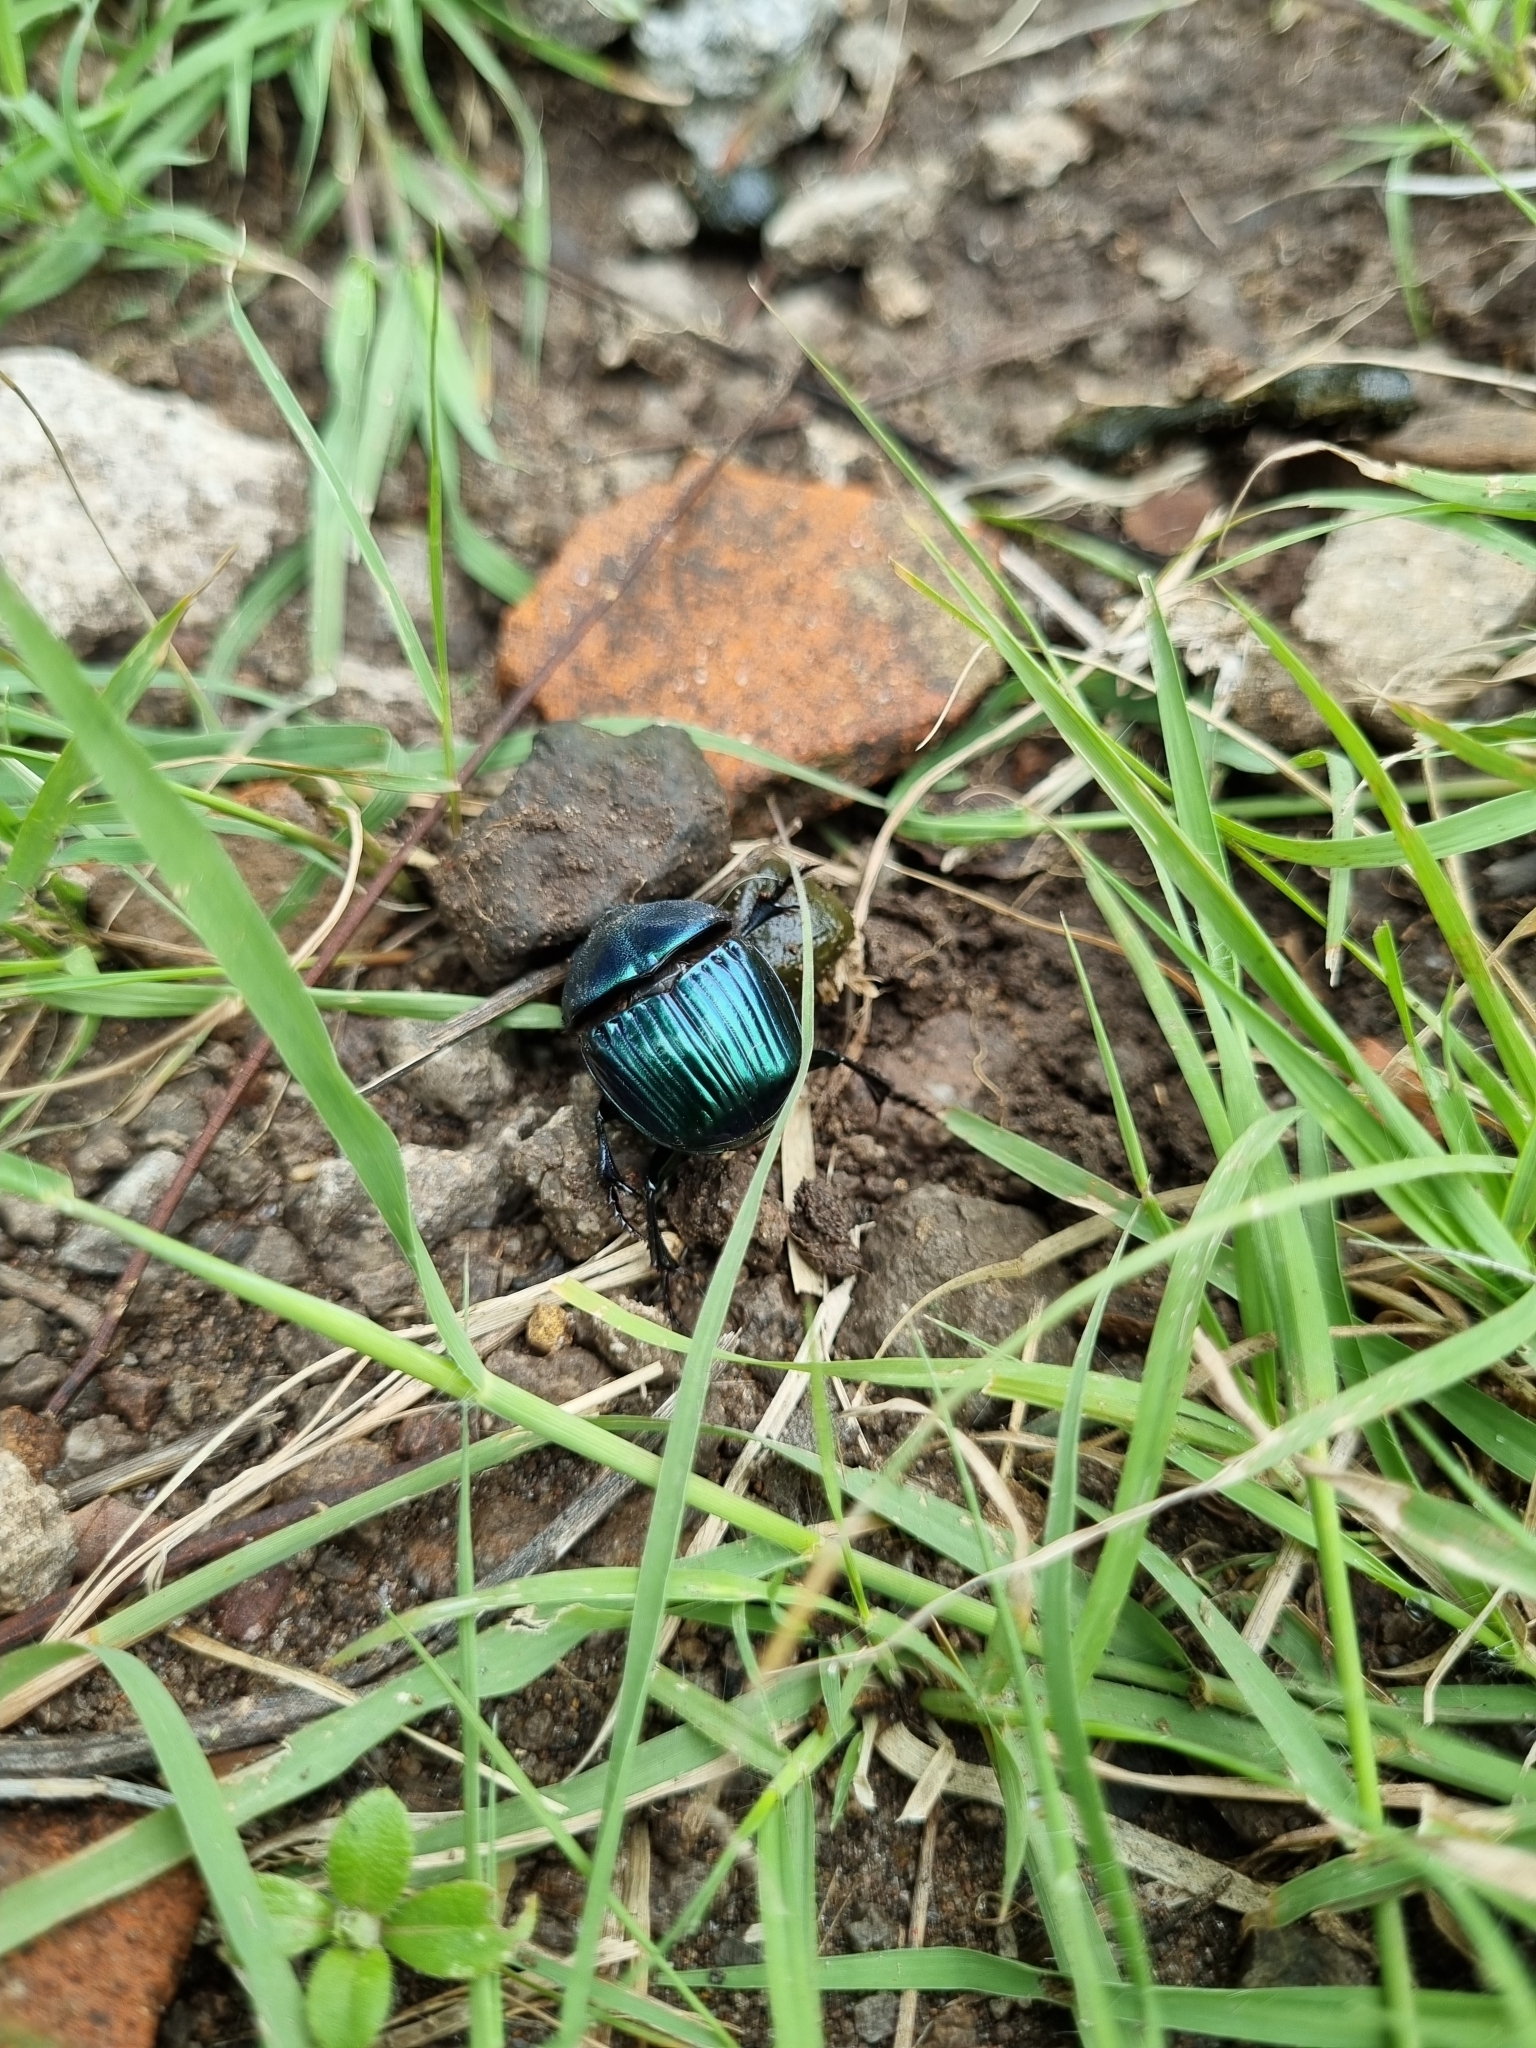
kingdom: Animalia
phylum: Arthropoda
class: Insecta
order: Coleoptera
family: Scarabaeidae
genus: Phanaeus
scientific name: Phanaeus amithaon
